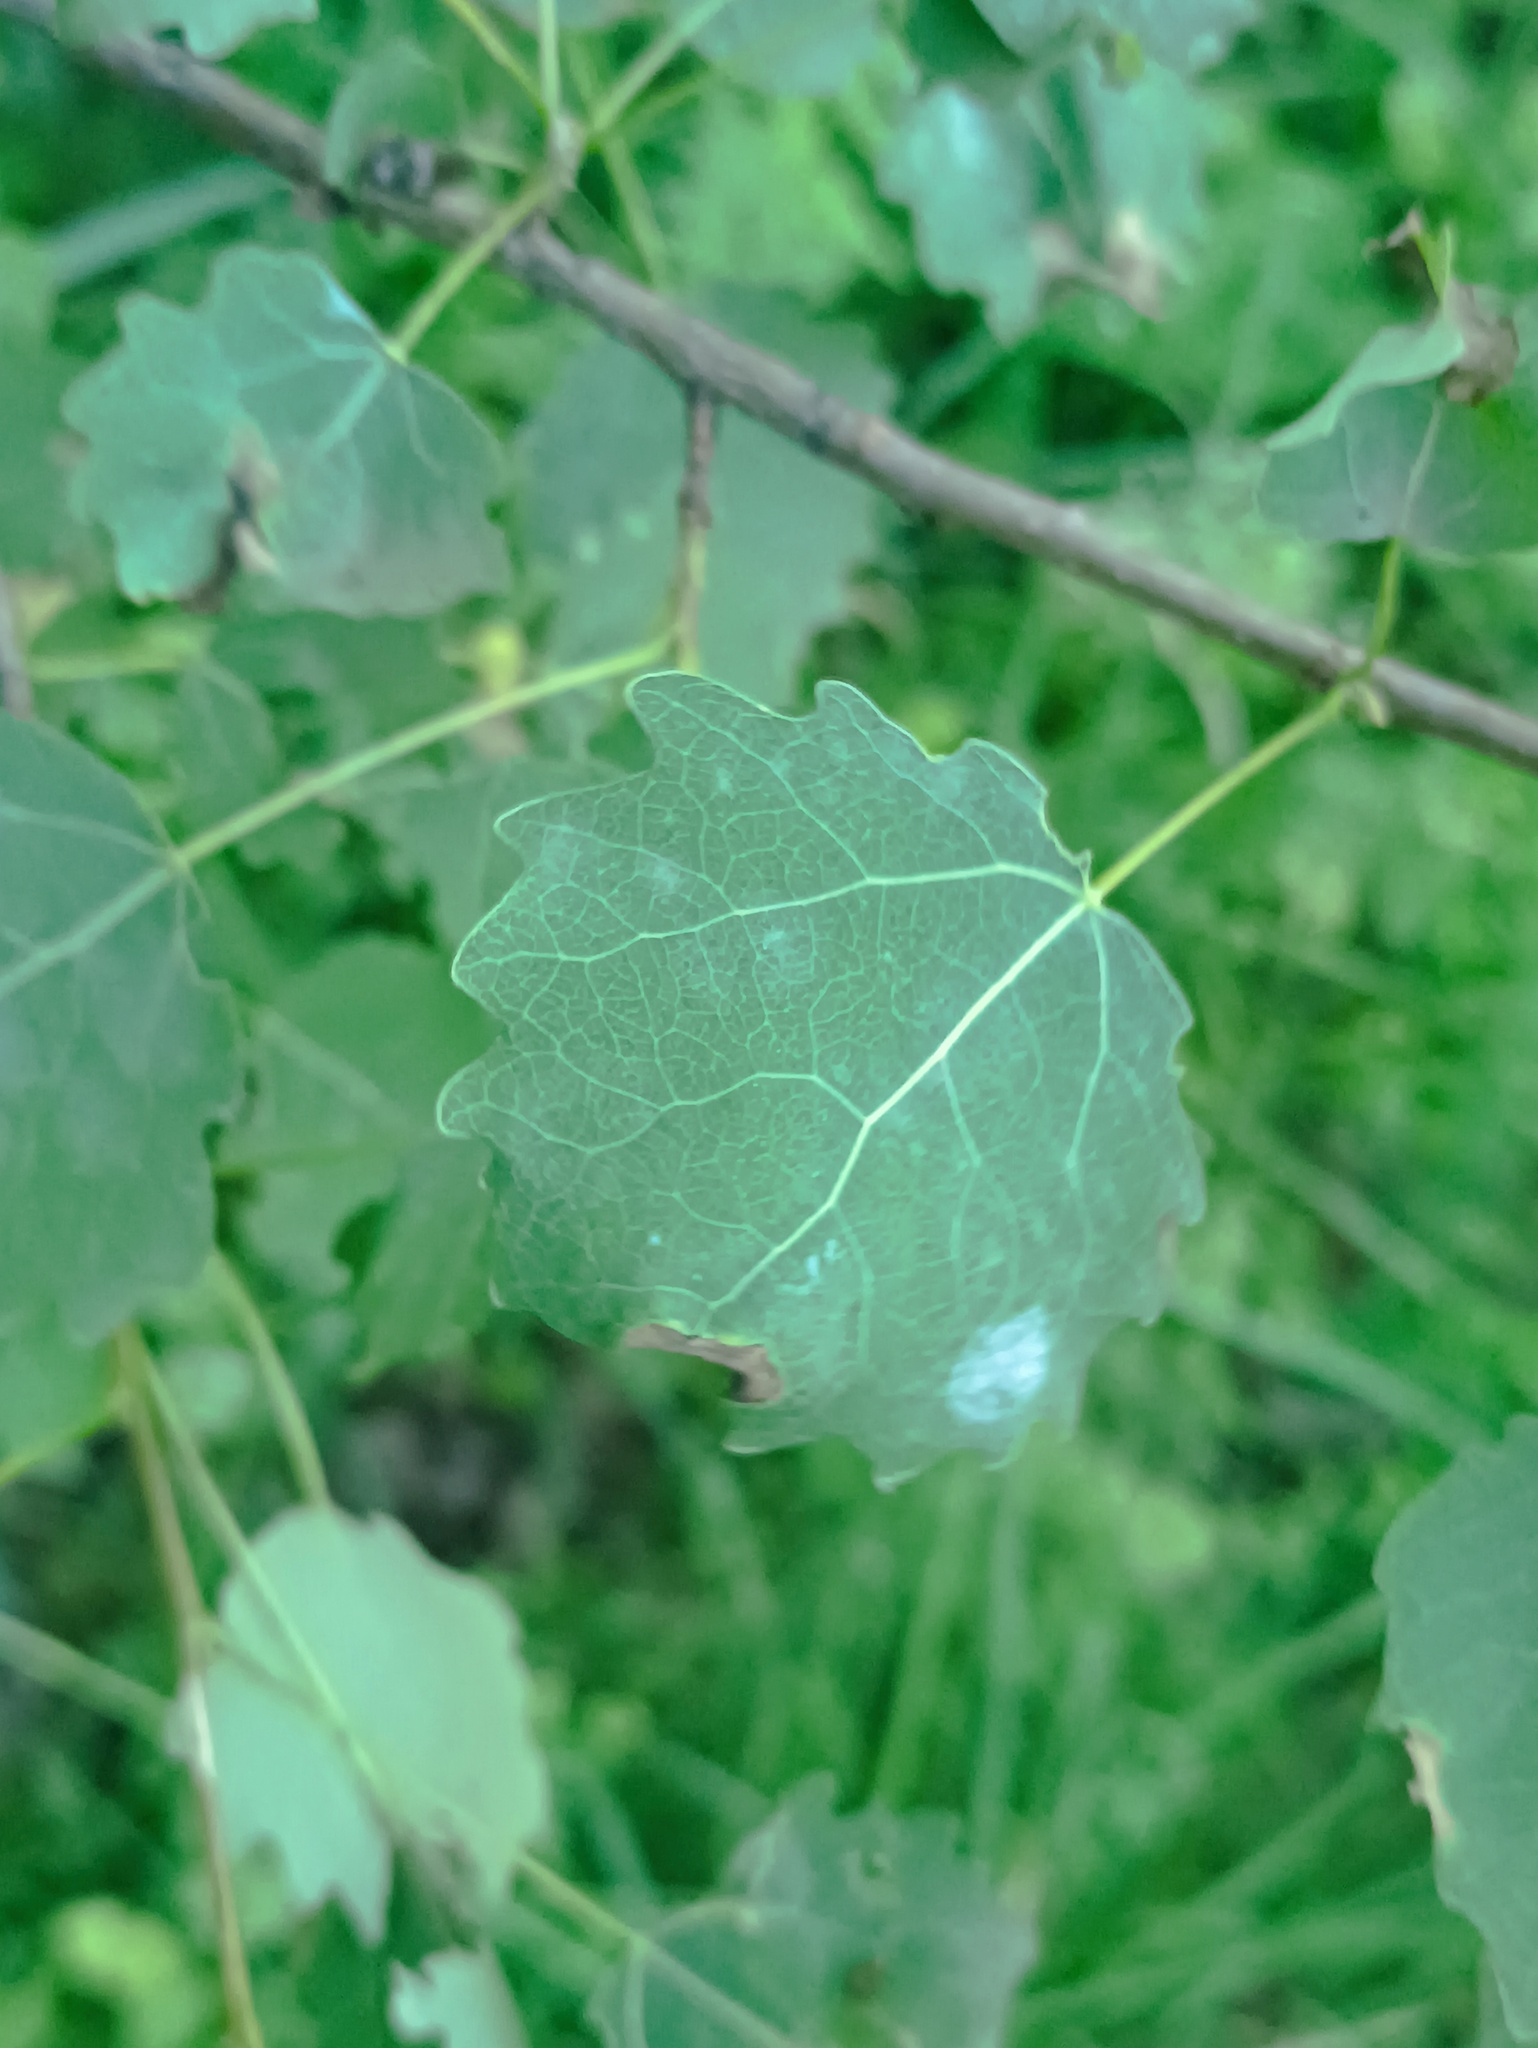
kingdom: Plantae
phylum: Tracheophyta
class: Magnoliopsida
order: Malpighiales
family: Salicaceae
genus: Populus
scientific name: Populus tremula
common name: European aspen
